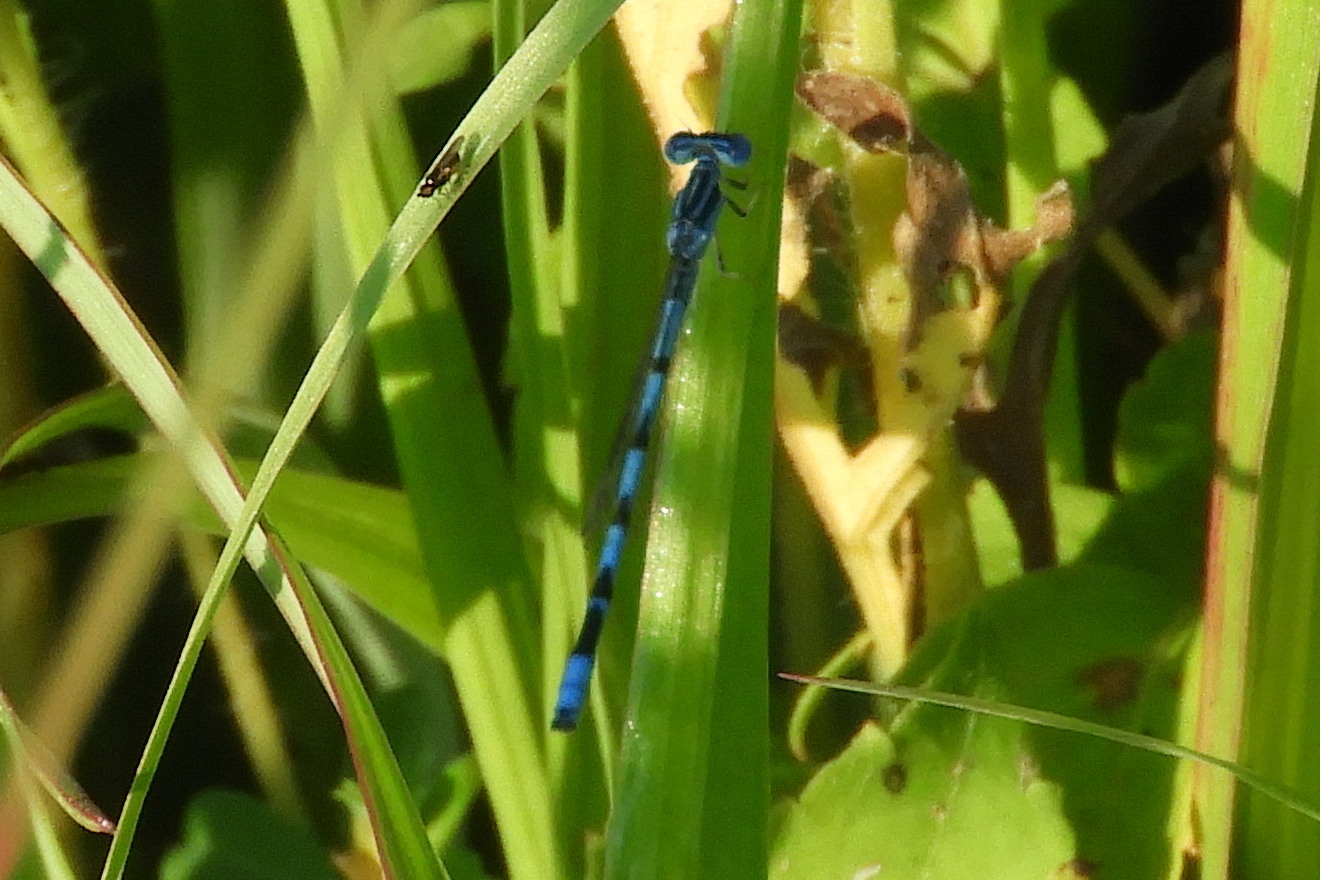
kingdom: Animalia
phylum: Arthropoda
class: Insecta
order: Odonata
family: Coenagrionidae
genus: Enallagma
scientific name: Enallagma durum
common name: Big bluet
